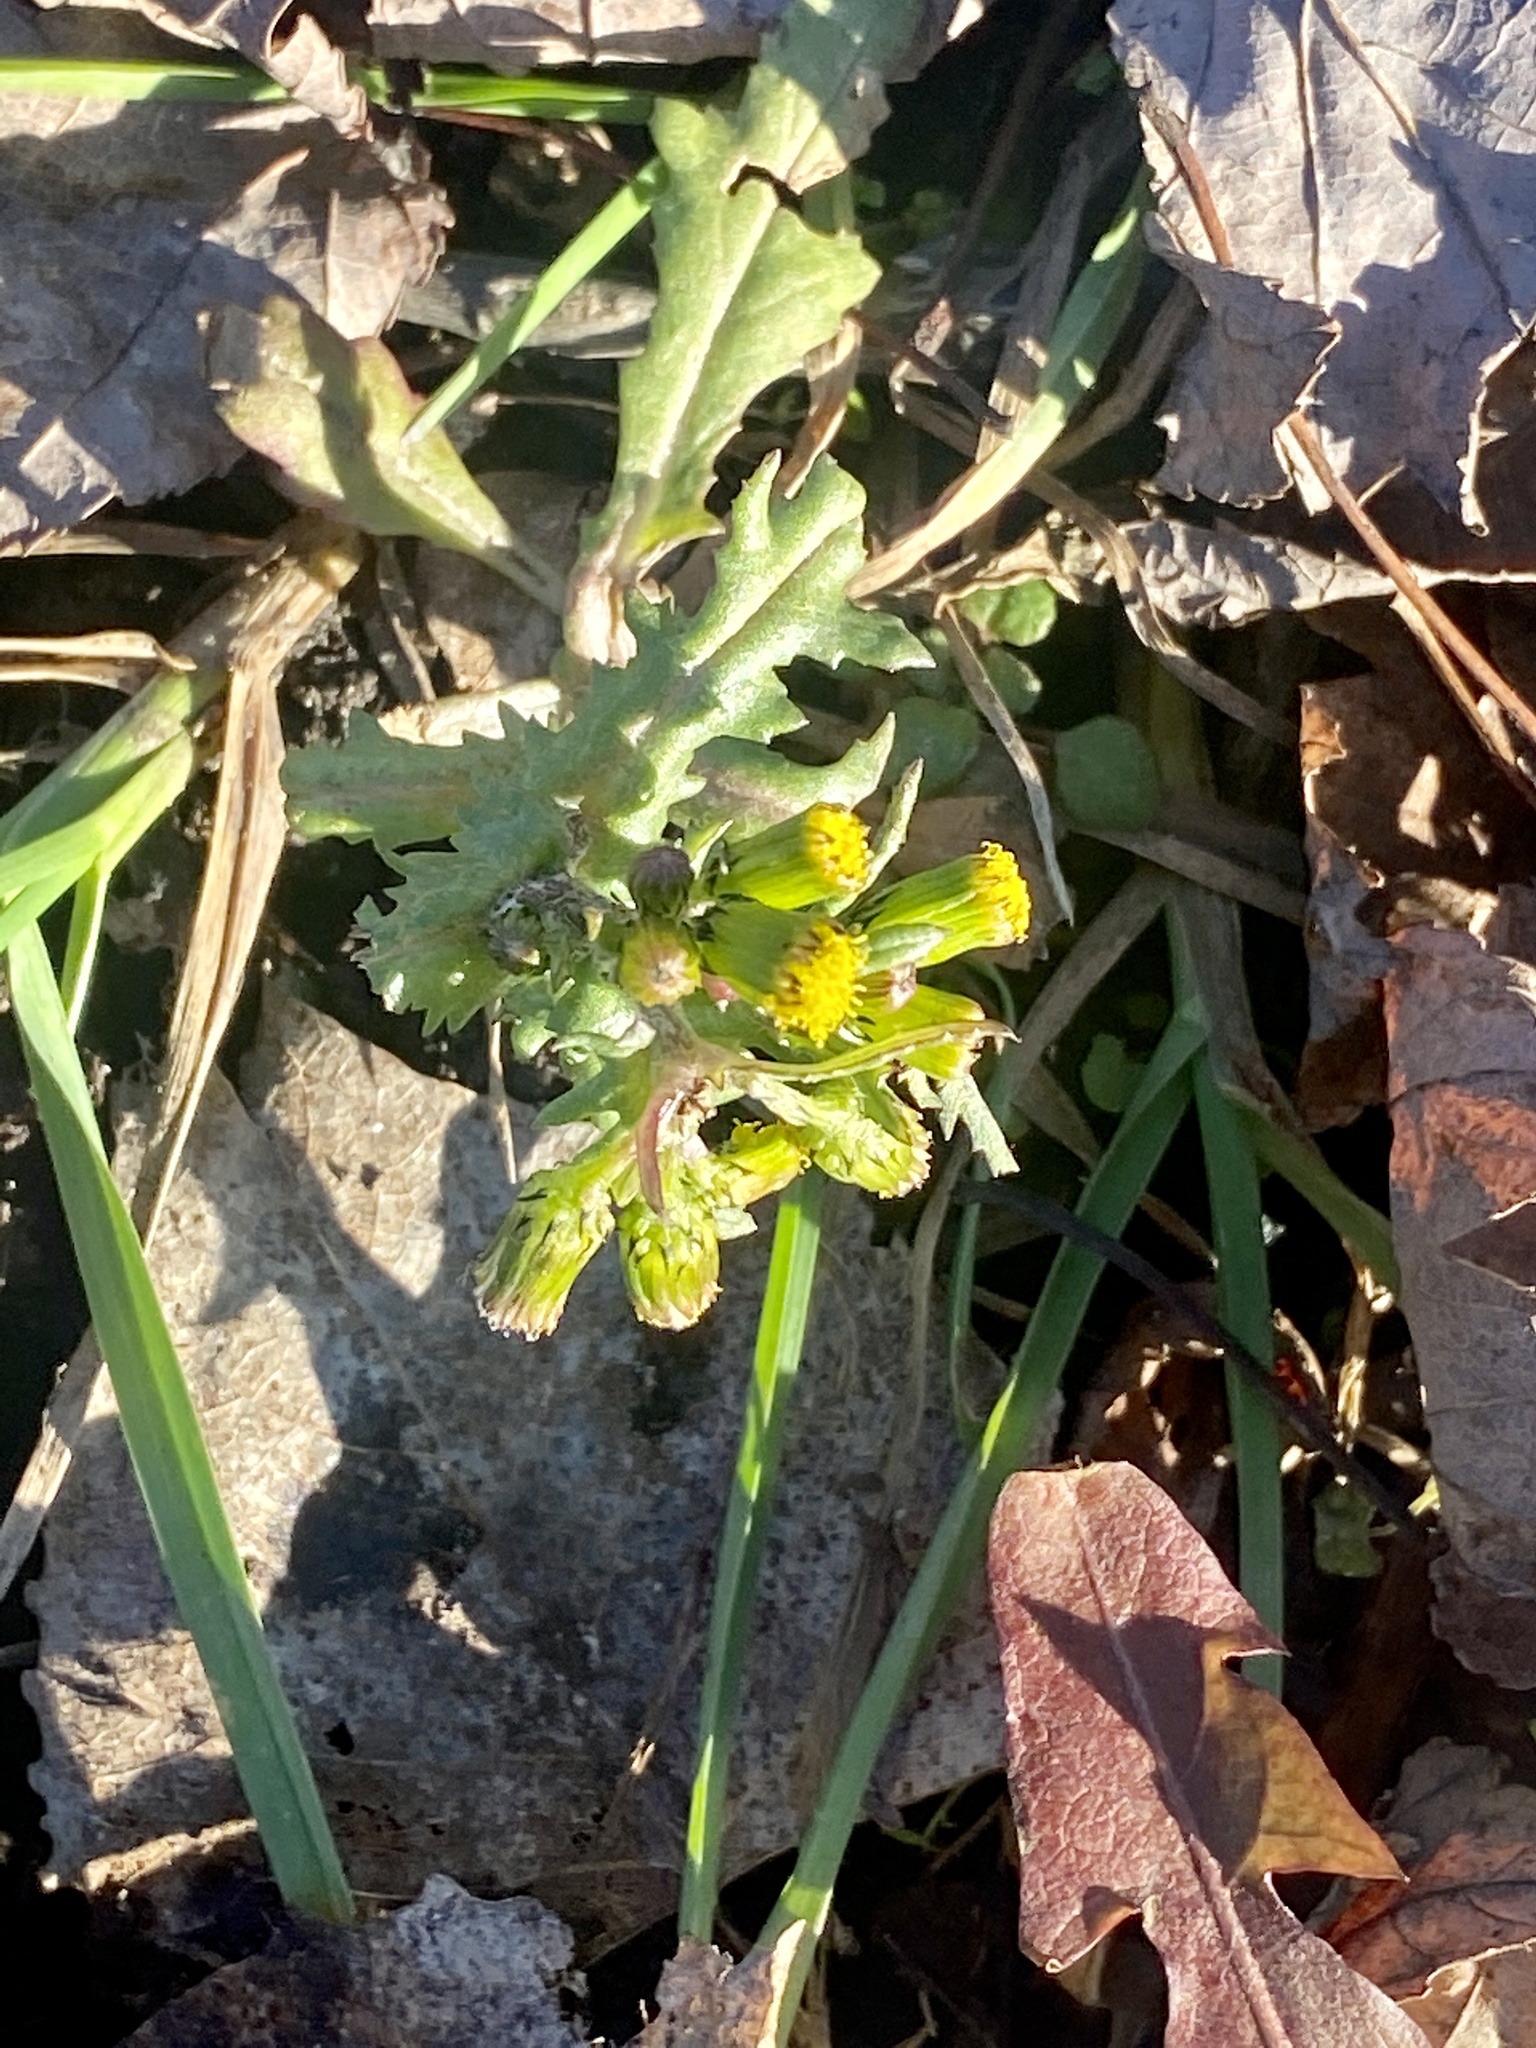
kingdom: Plantae
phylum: Tracheophyta
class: Magnoliopsida
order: Asterales
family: Asteraceae
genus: Senecio
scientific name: Senecio vulgaris
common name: Old-man-in-the-spring
